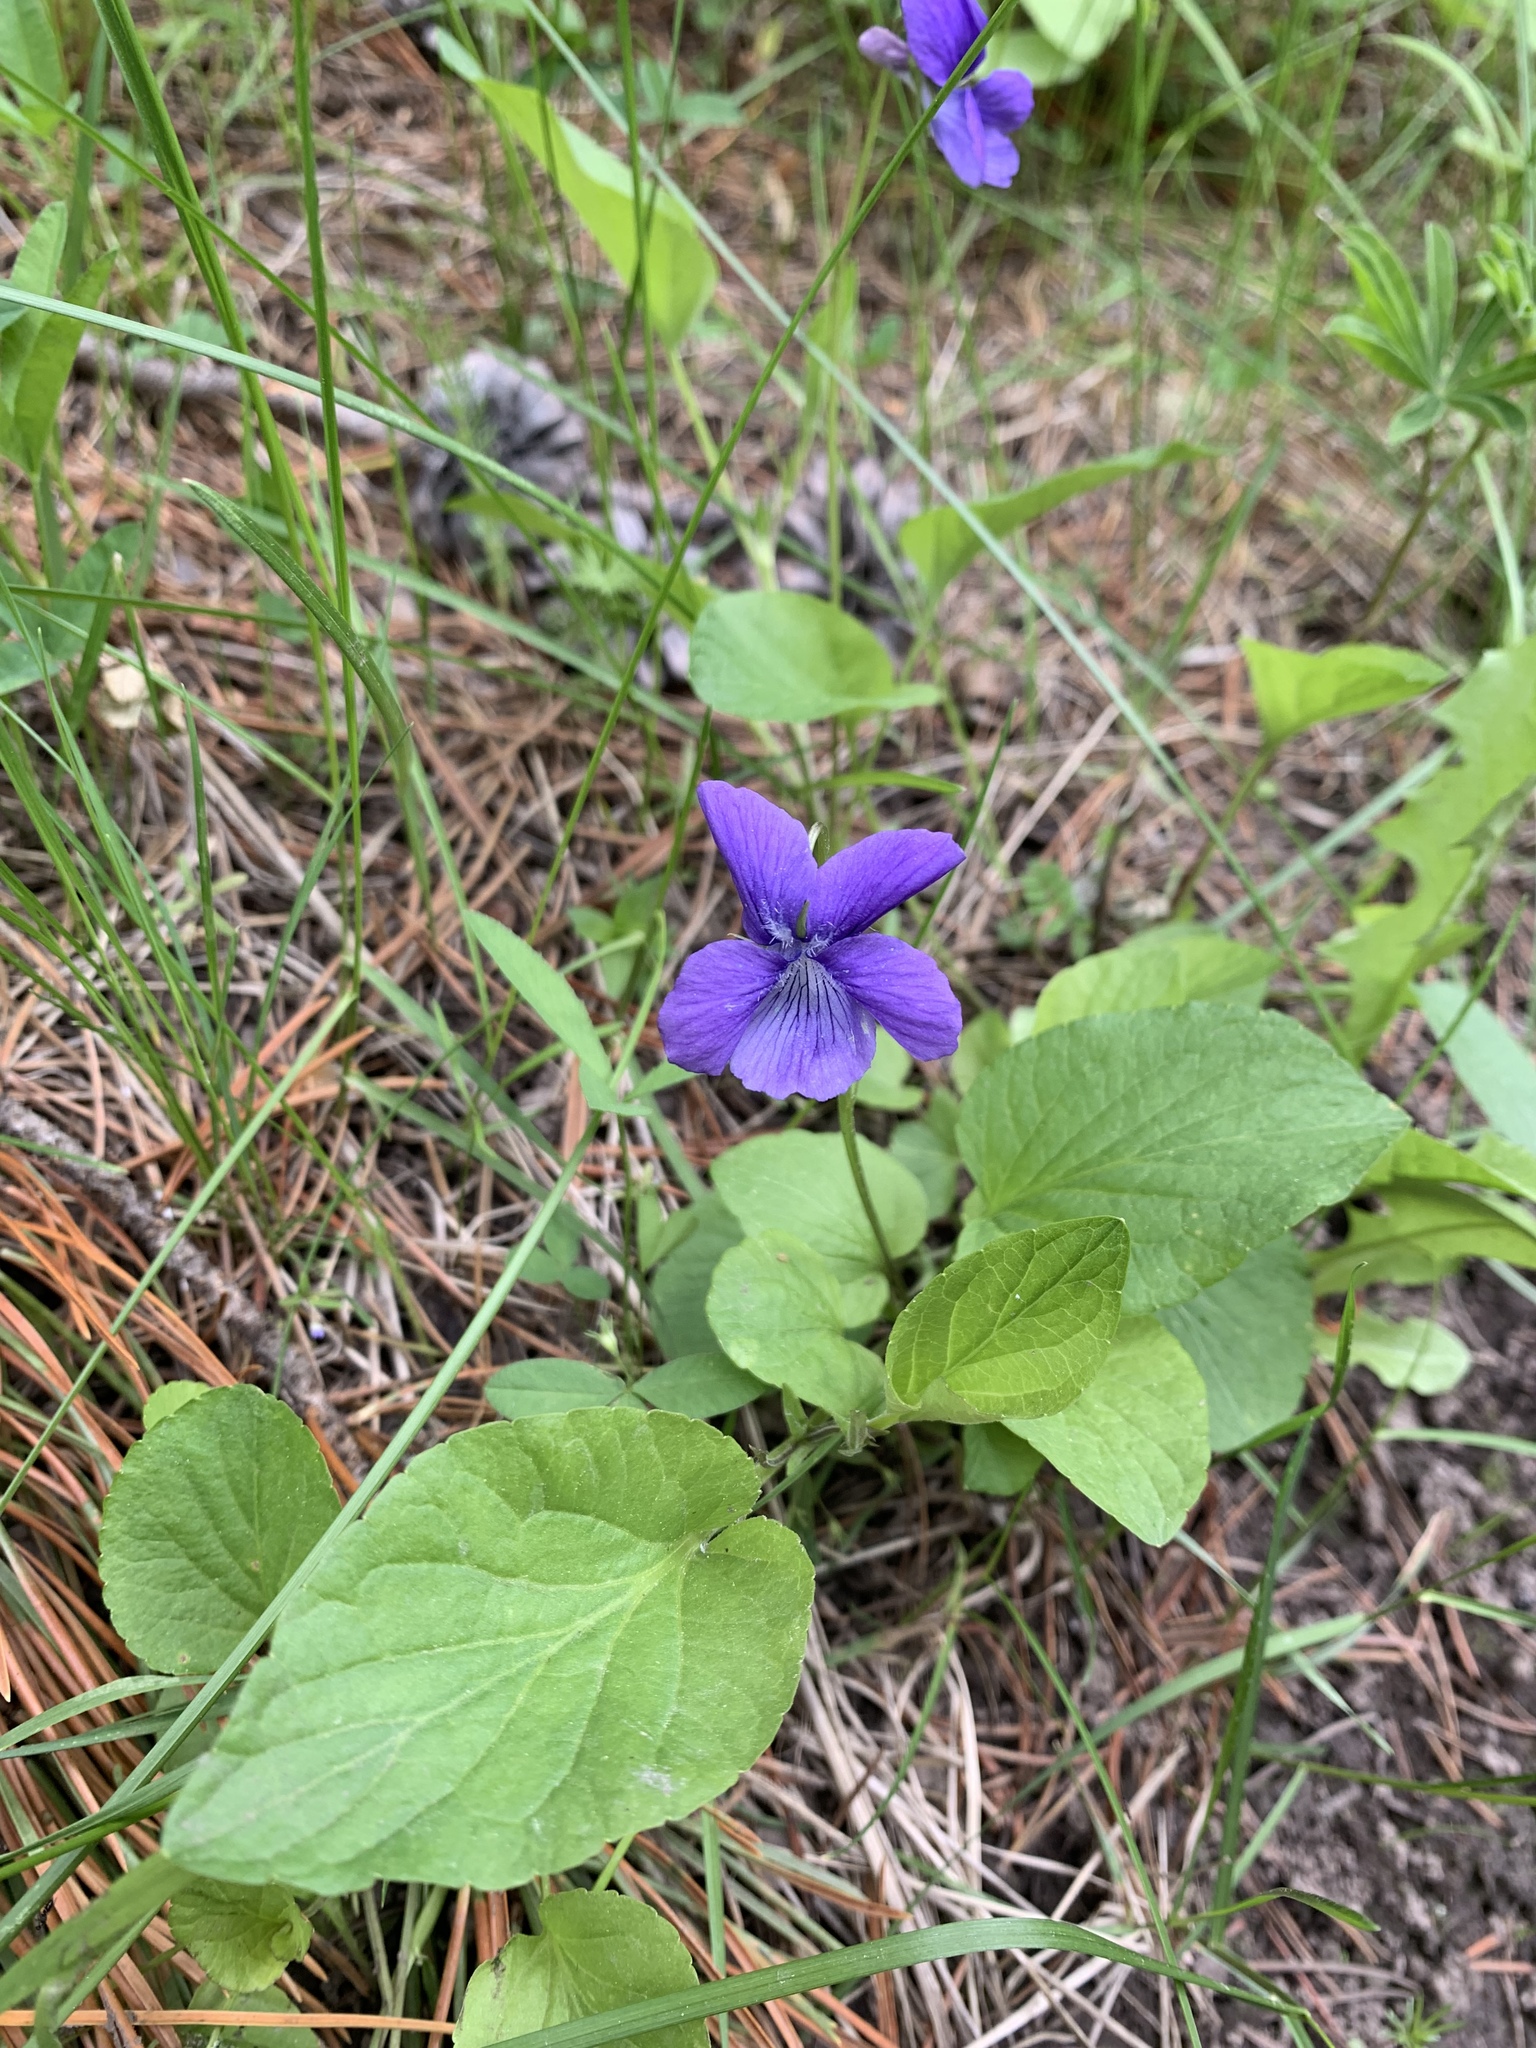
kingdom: Plantae
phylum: Tracheophyta
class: Magnoliopsida
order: Malpighiales
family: Violaceae
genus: Viola
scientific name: Viola adunca
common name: Sand violet
